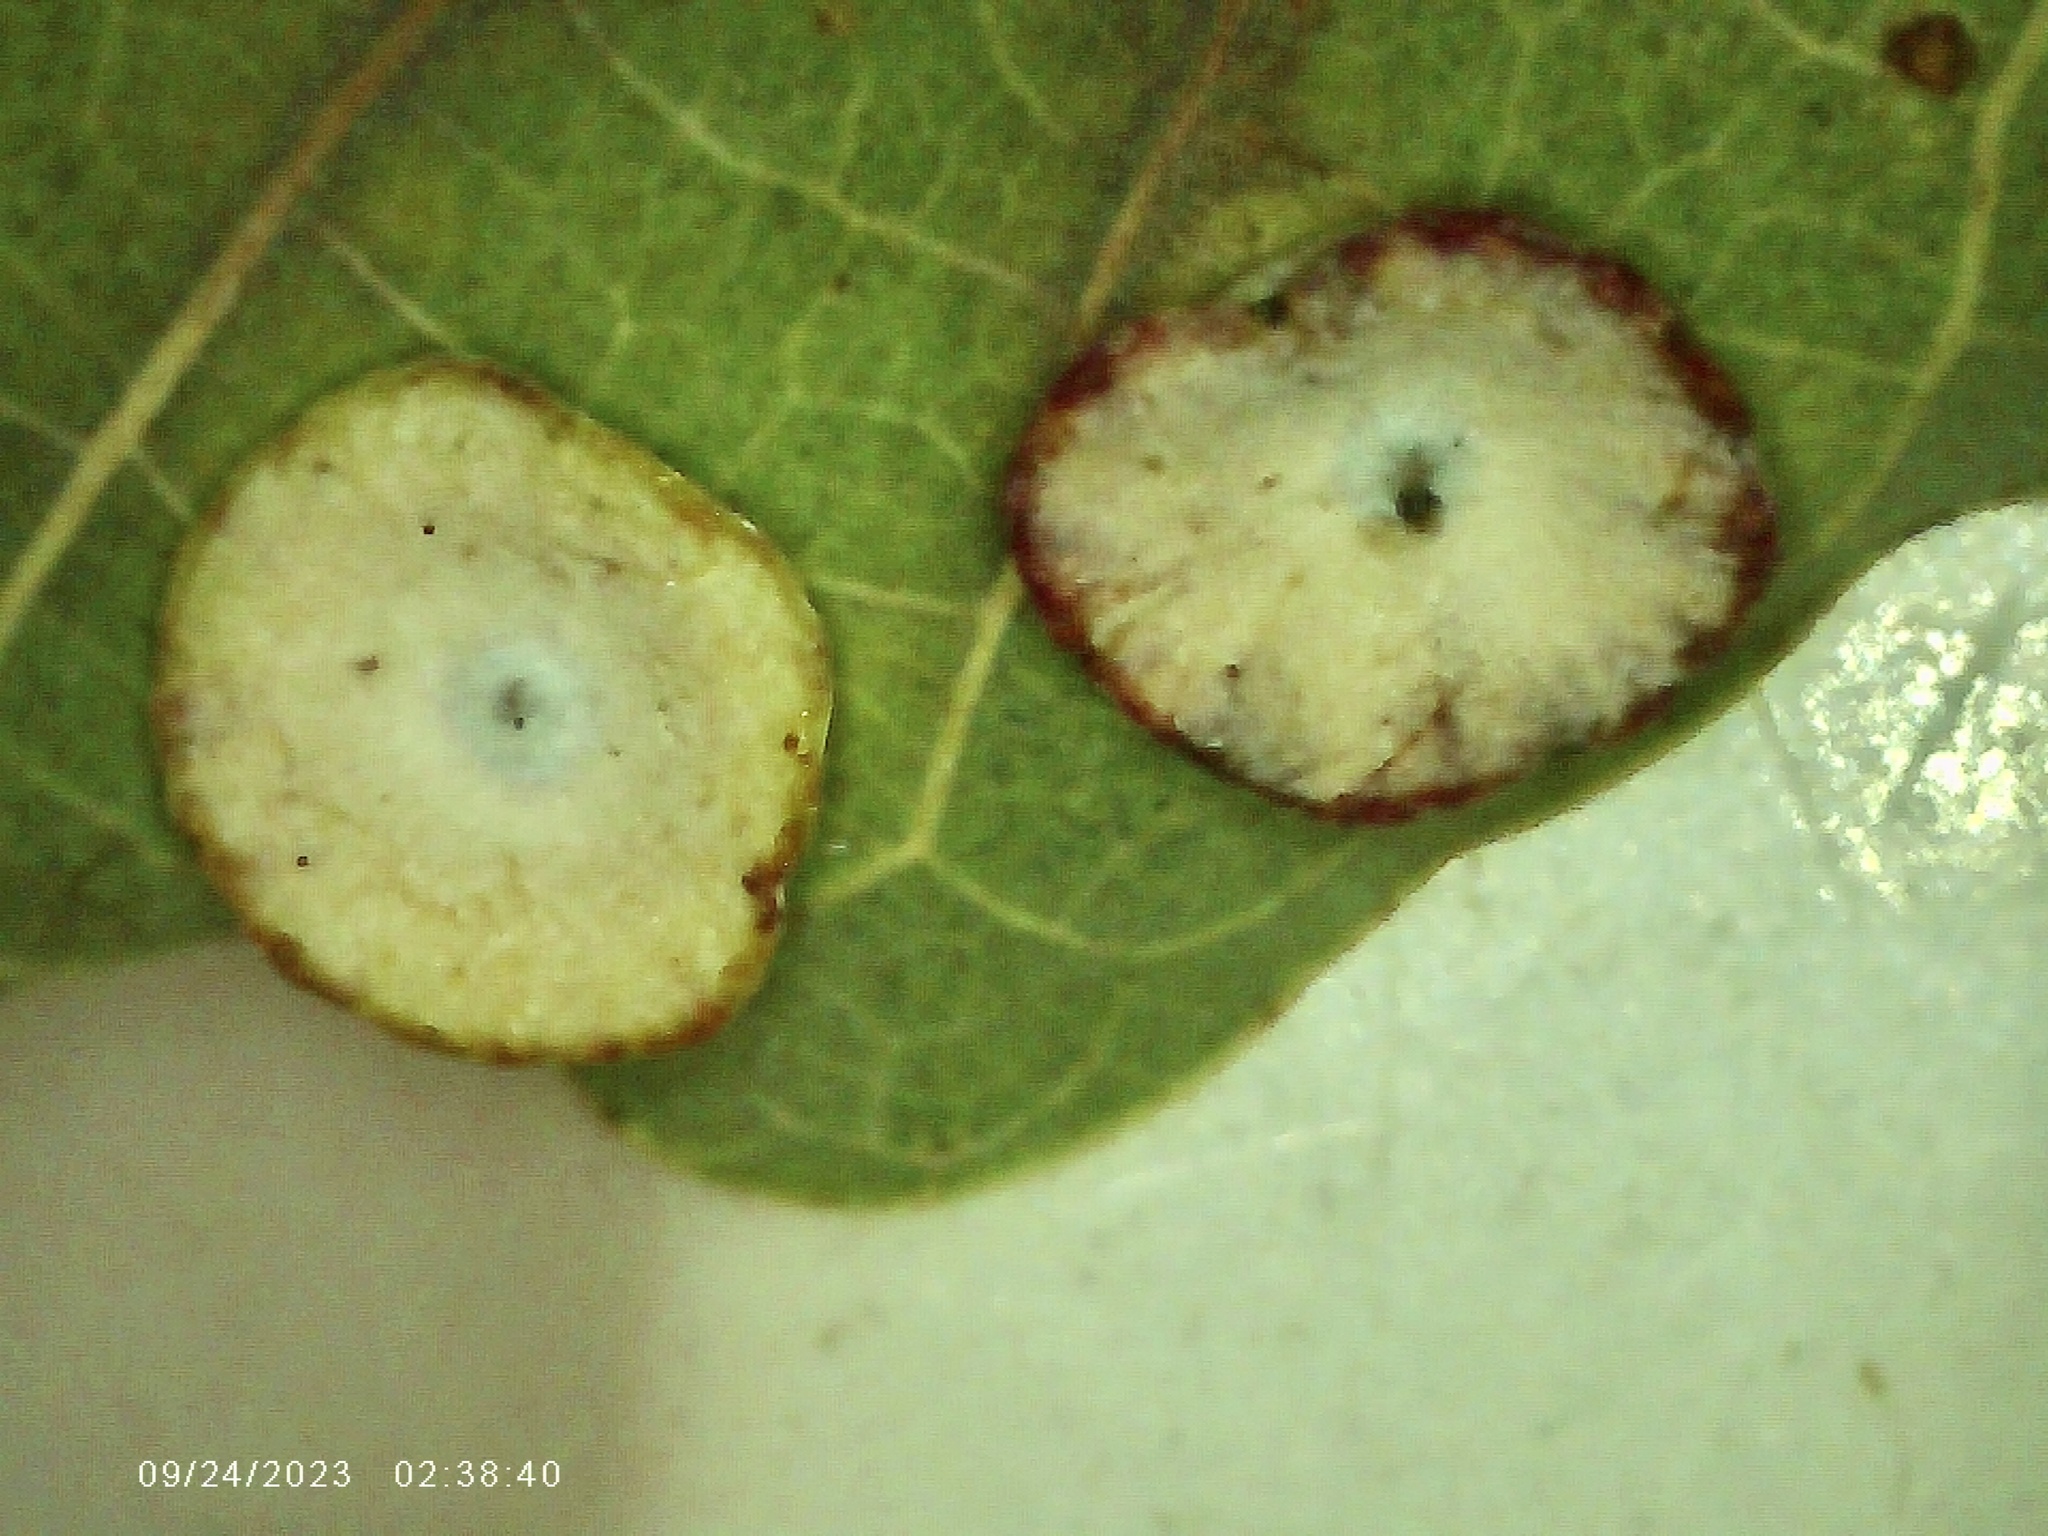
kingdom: Animalia
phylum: Arthropoda
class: Insecta
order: Hymenoptera
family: Cynipidae
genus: Phylloteras
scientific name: Phylloteras poculum
